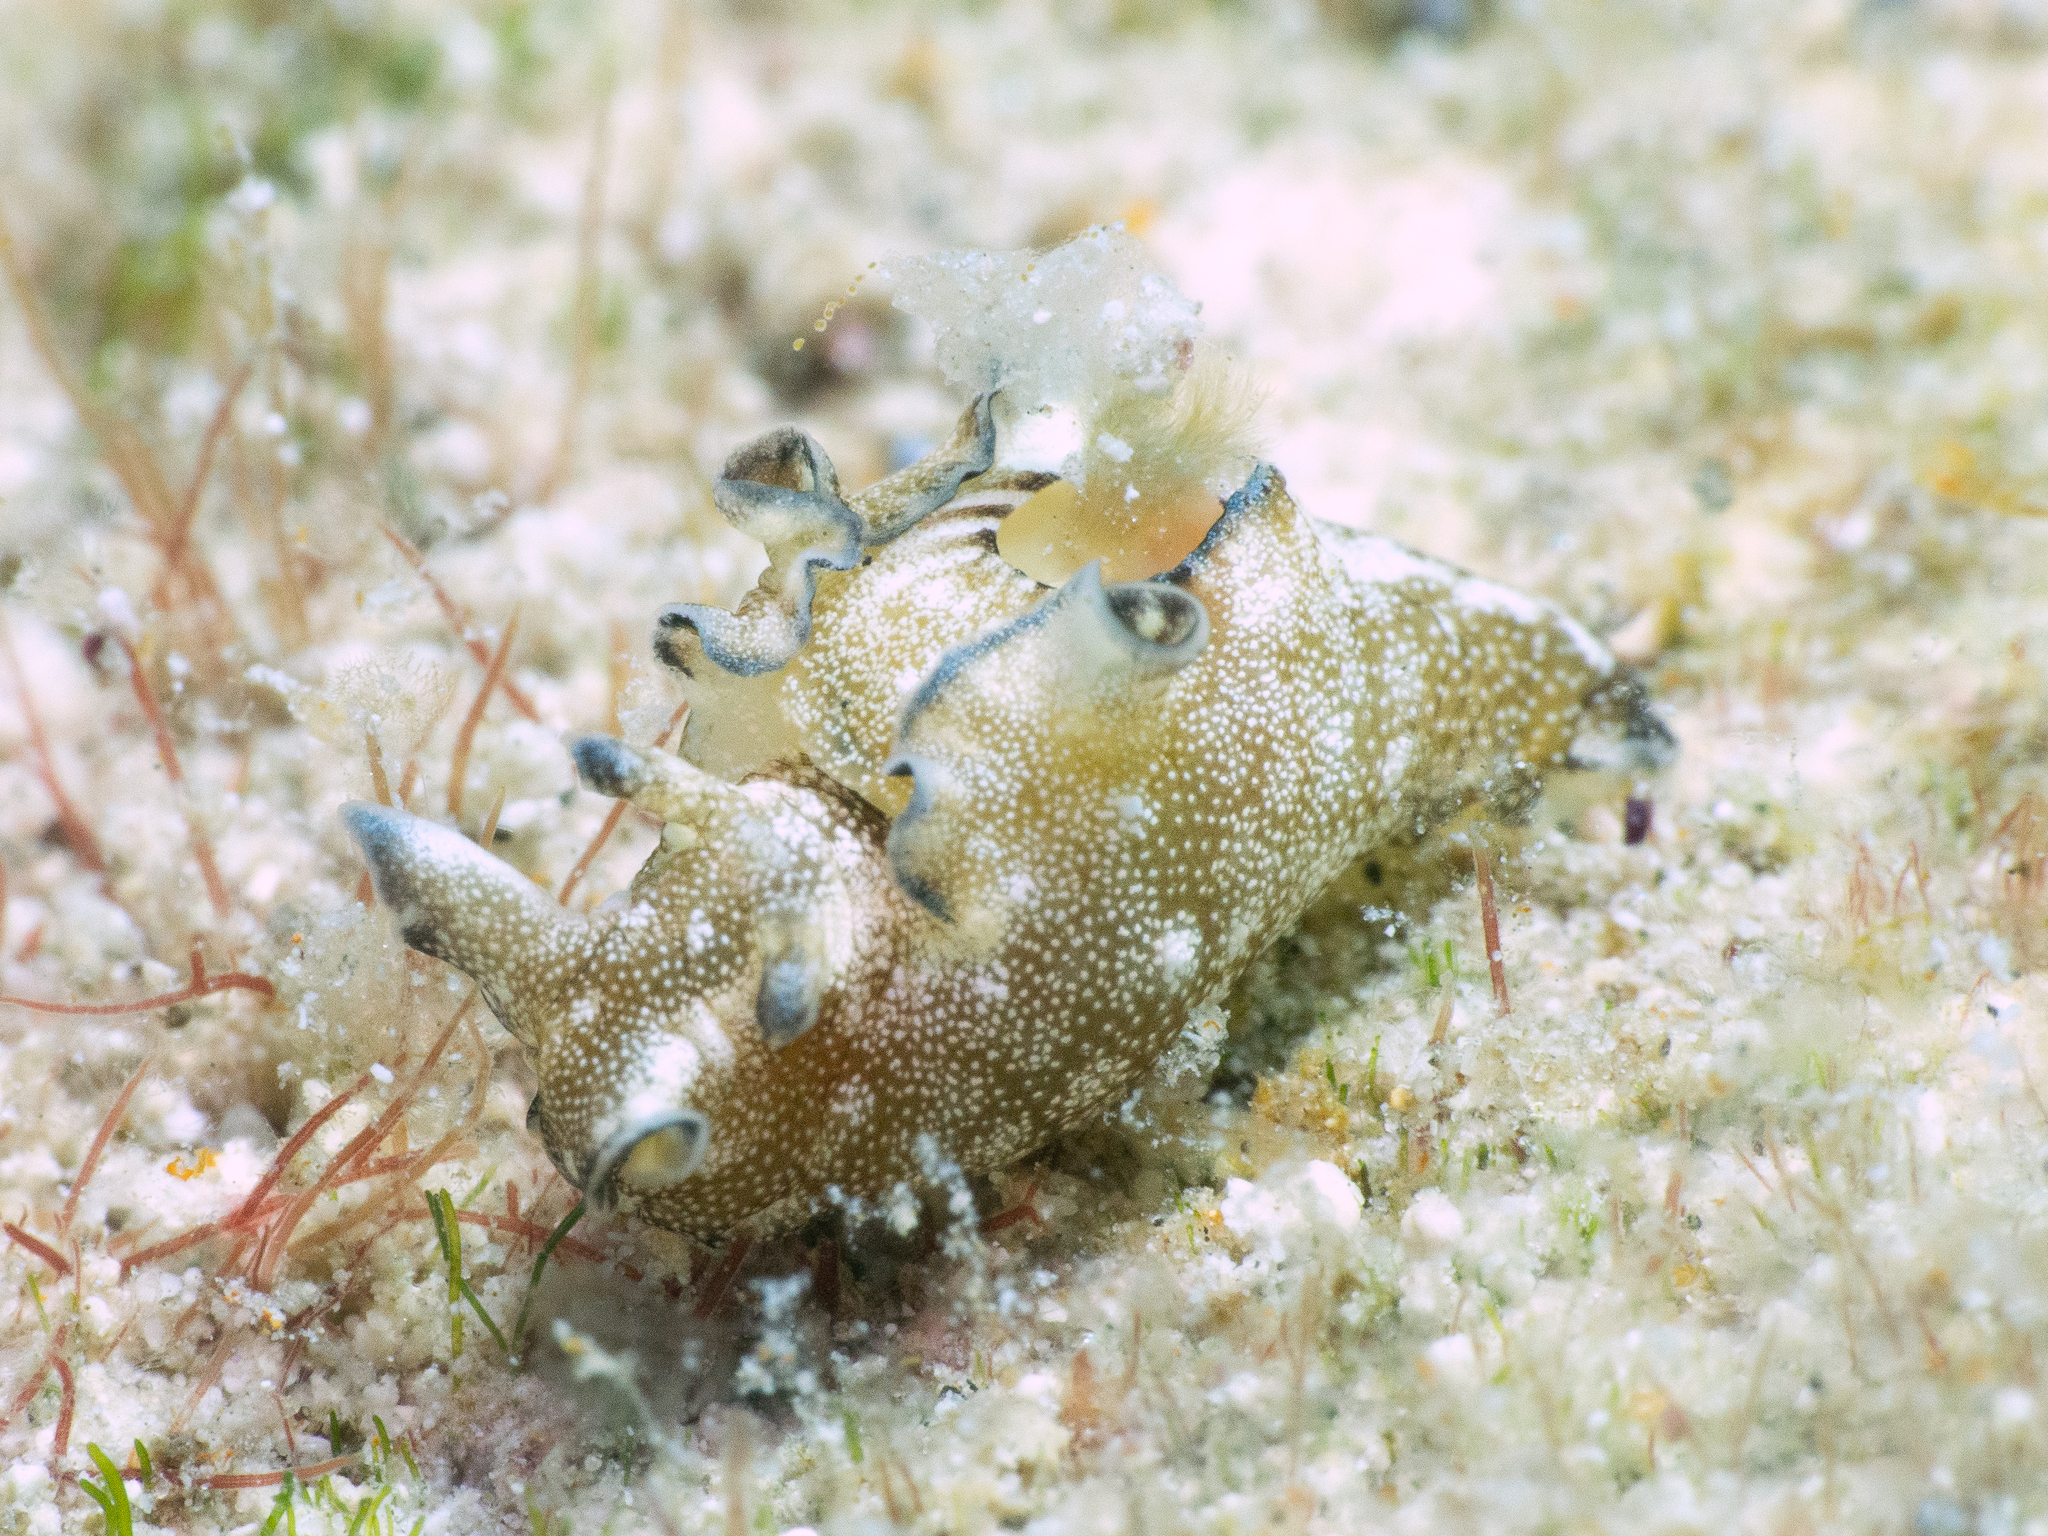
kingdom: Animalia
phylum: Mollusca
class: Gastropoda
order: Aplysiida
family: Aplysiidae
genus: Aplysia
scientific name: Aplysia parvula
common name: Dwarf sea hare
